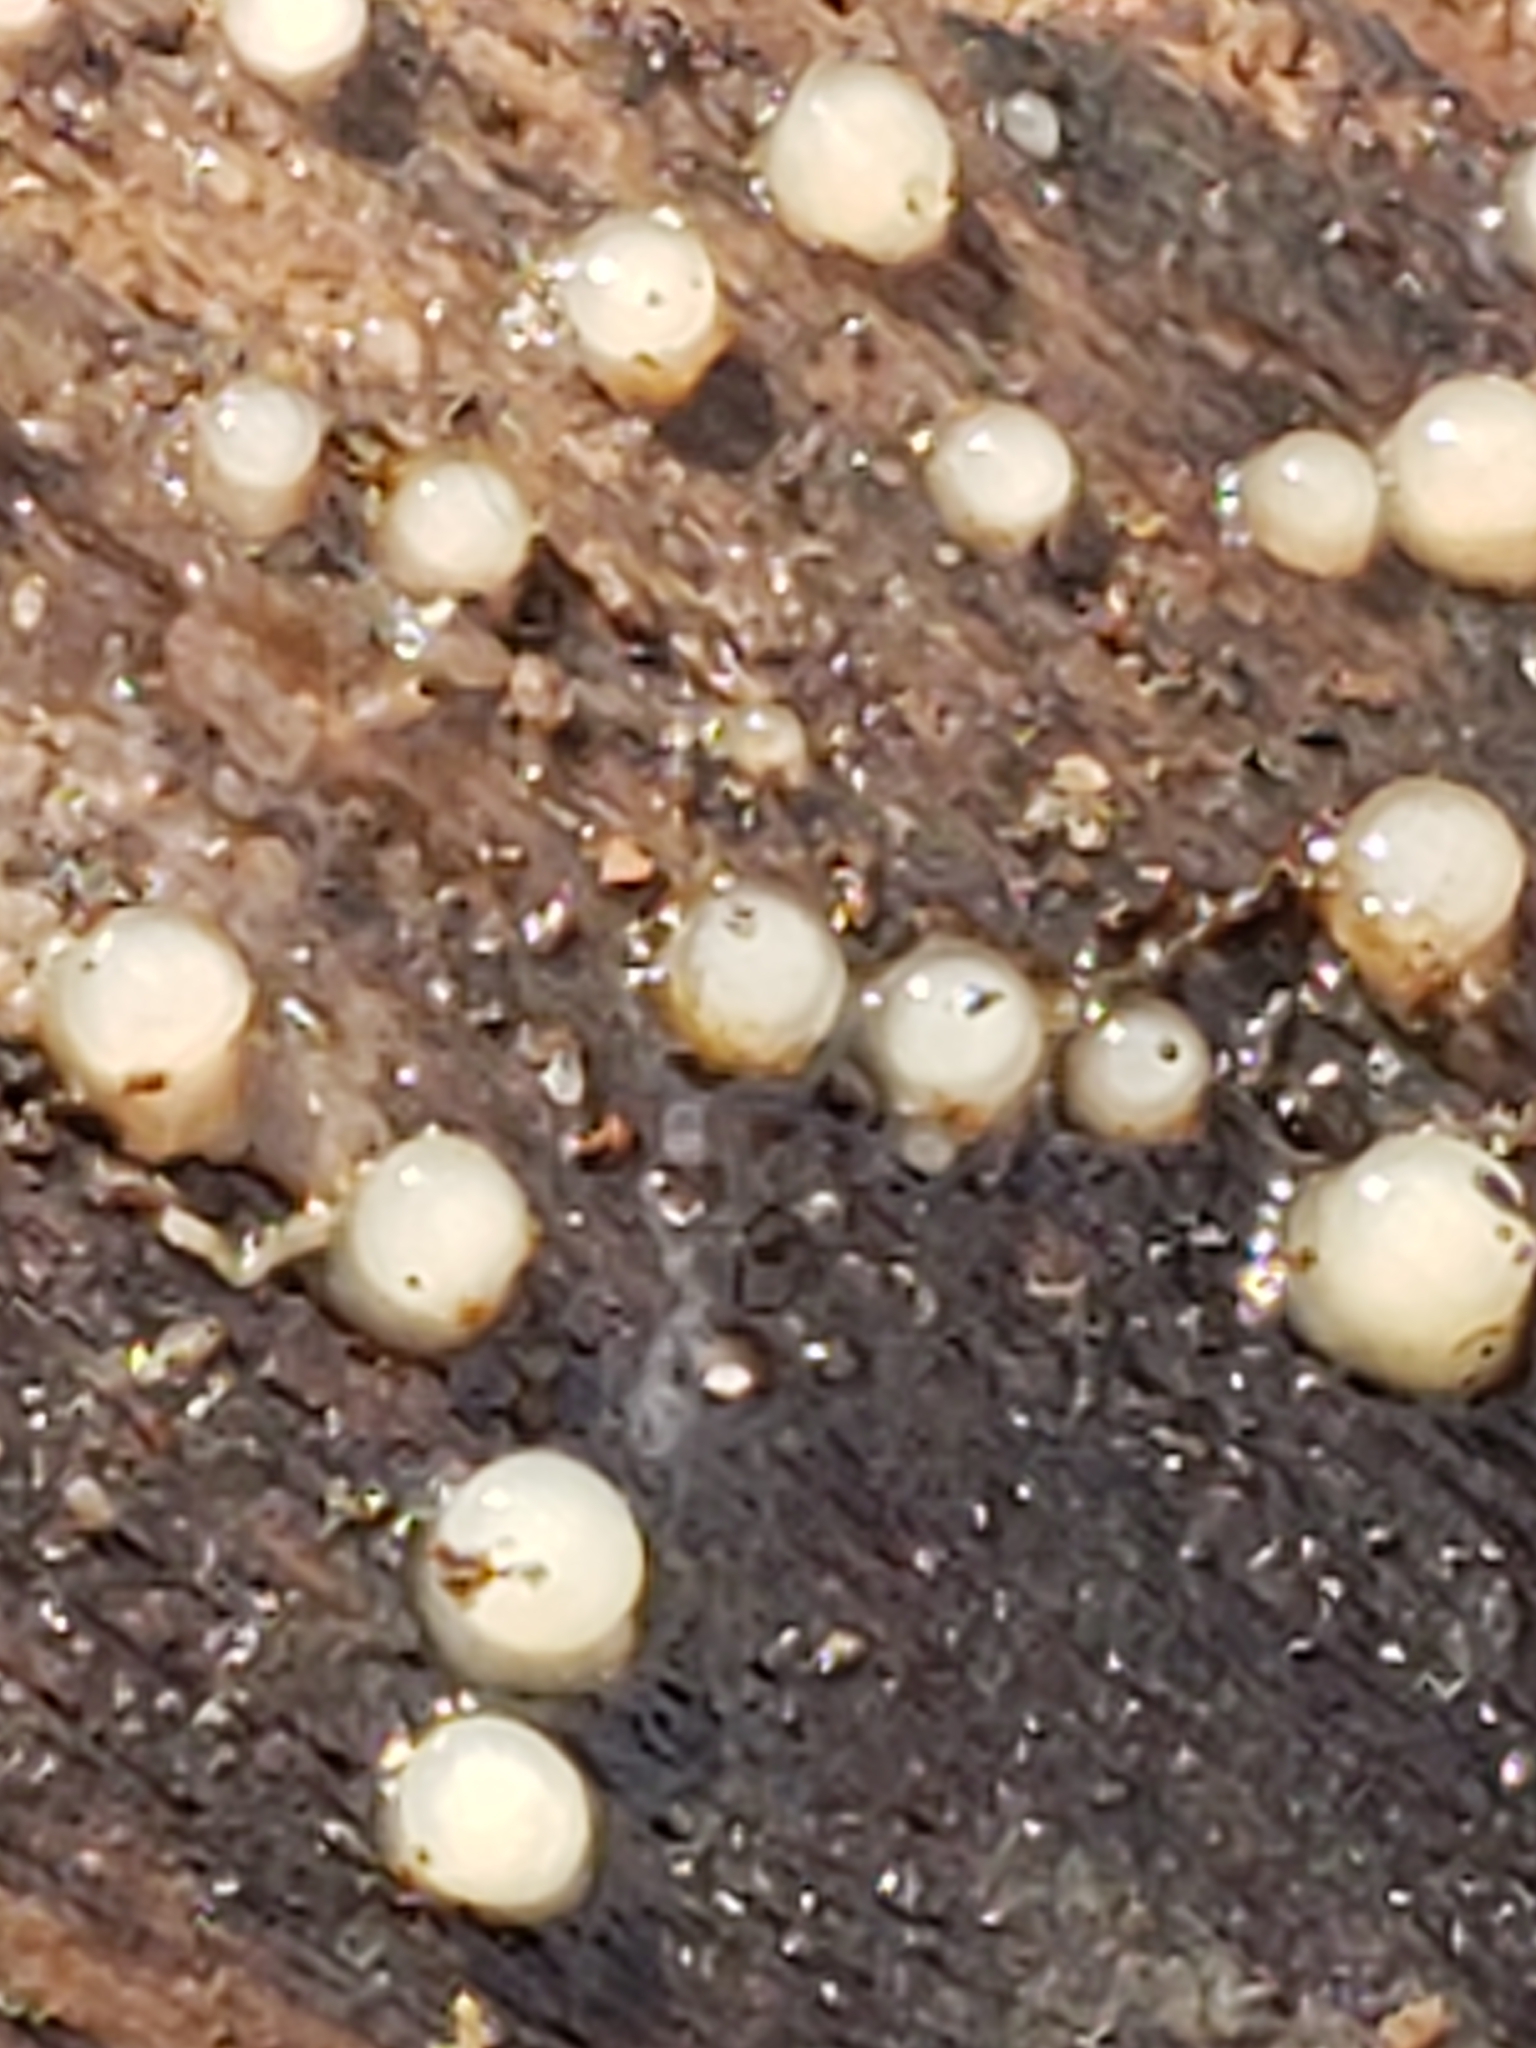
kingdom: Fungi
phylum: Basidiomycota
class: Atractiellomycetes
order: Atractiellales
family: Phleogenaceae
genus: Helicogloea
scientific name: Helicogloea compressa
